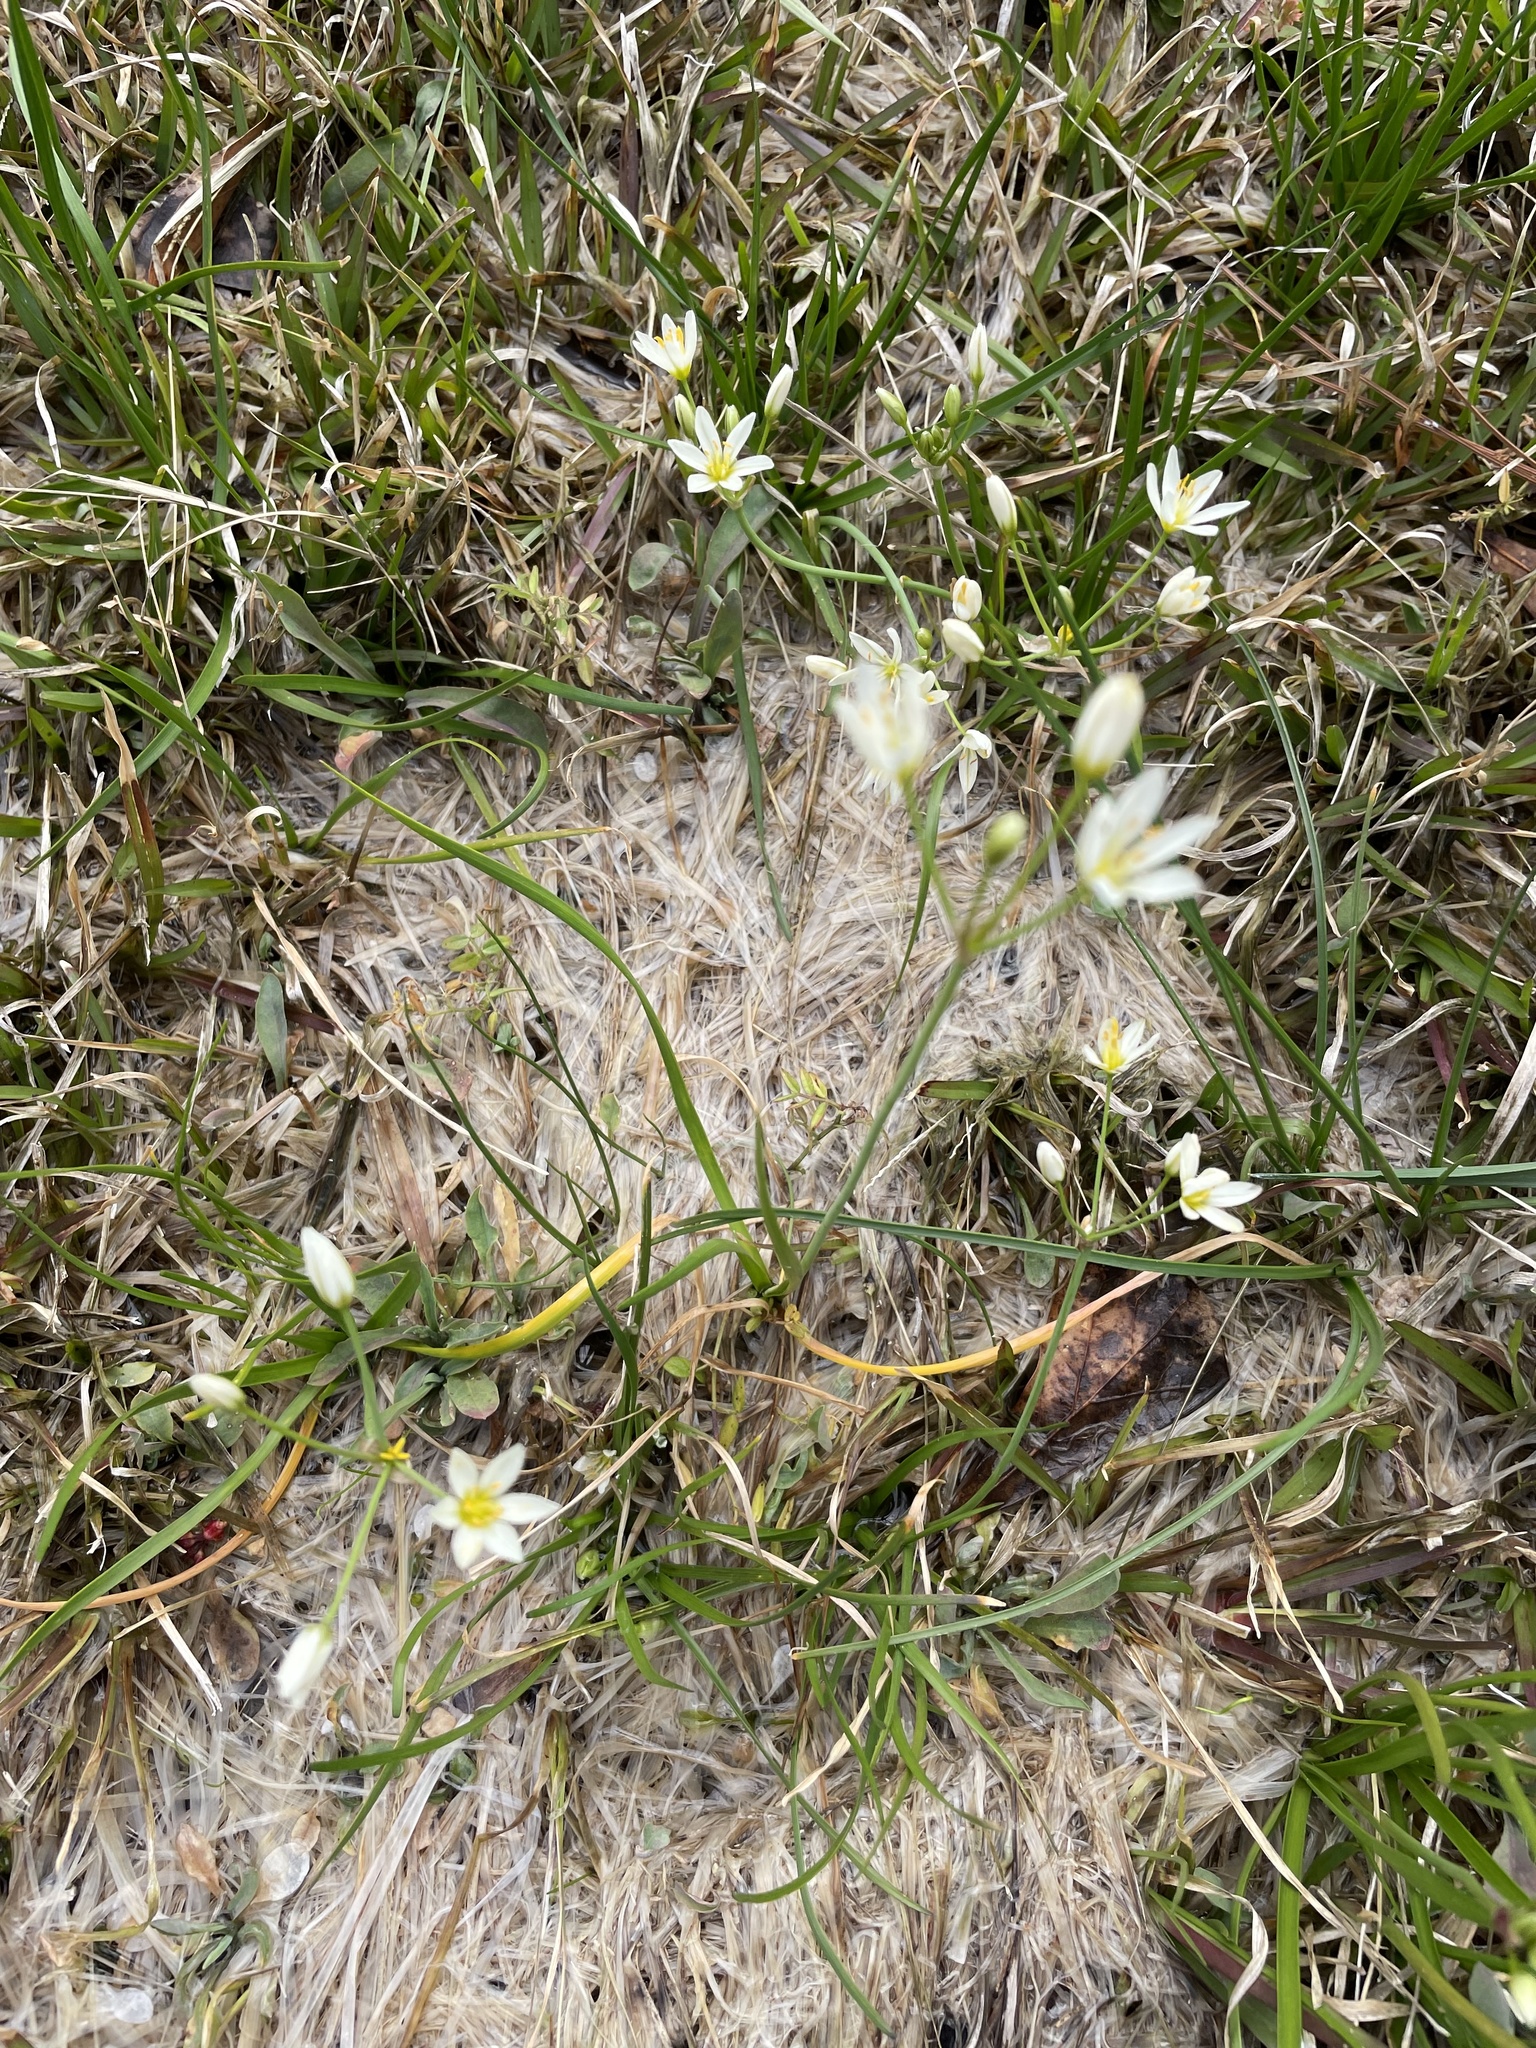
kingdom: Plantae
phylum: Tracheophyta
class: Liliopsida
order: Asparagales
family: Amaryllidaceae
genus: Nothoscordum
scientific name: Nothoscordum bivalve
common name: Crow-poison
